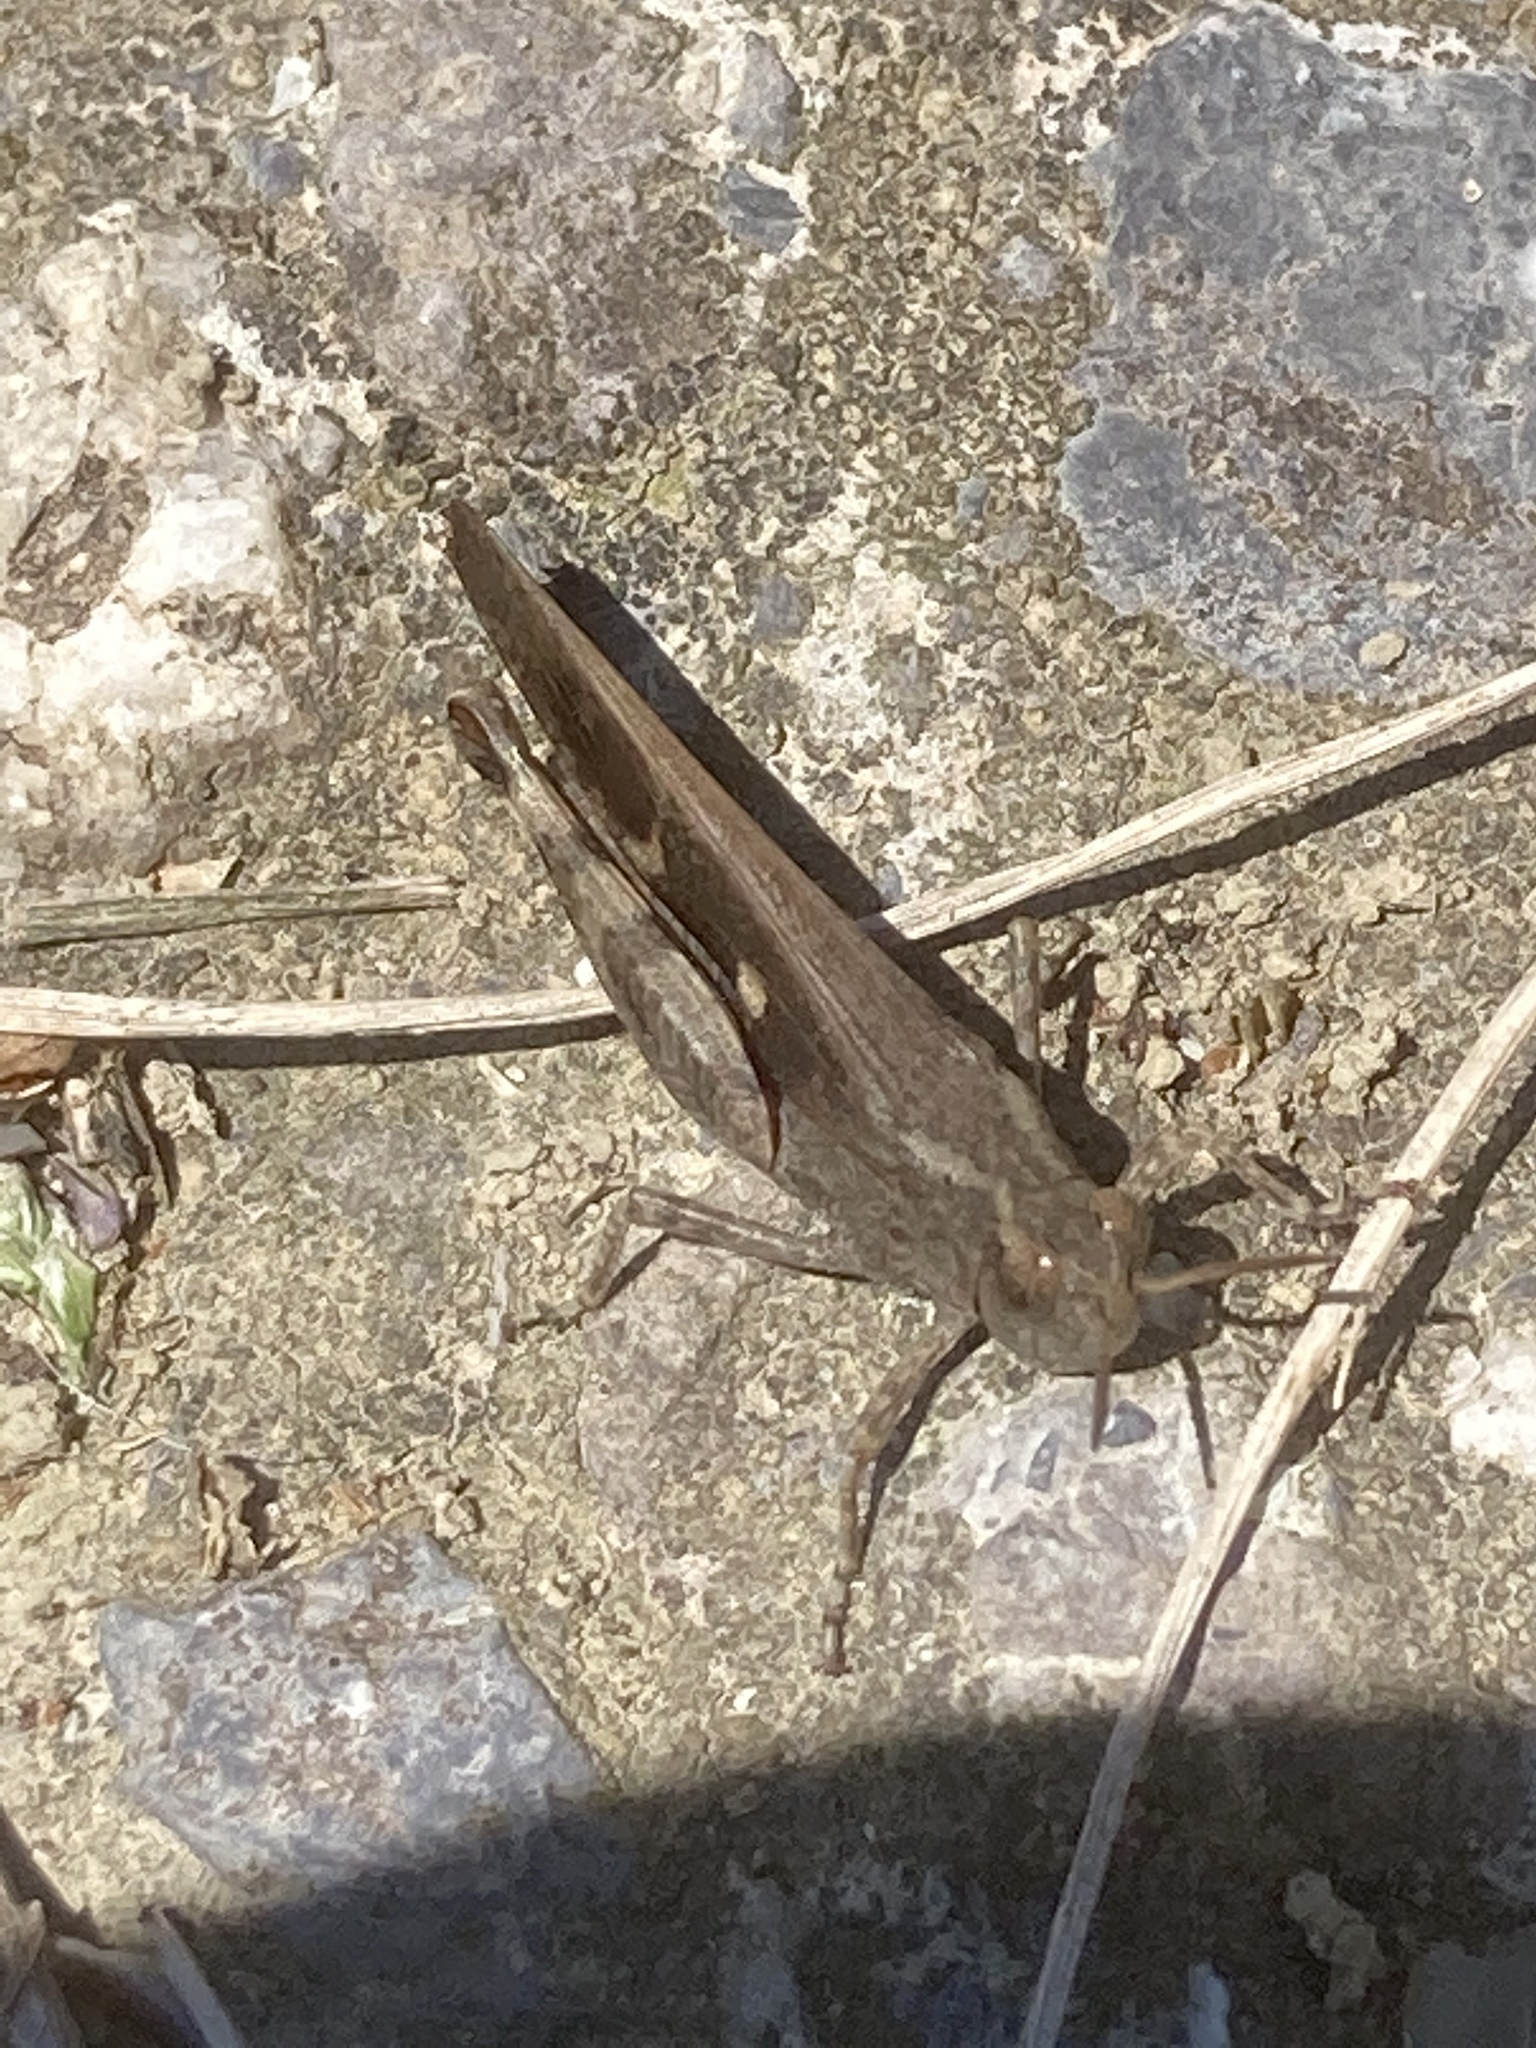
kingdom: Animalia
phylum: Arthropoda
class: Insecta
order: Orthoptera
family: Acrididae
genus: Aiolopus
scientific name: Aiolopus strepens
